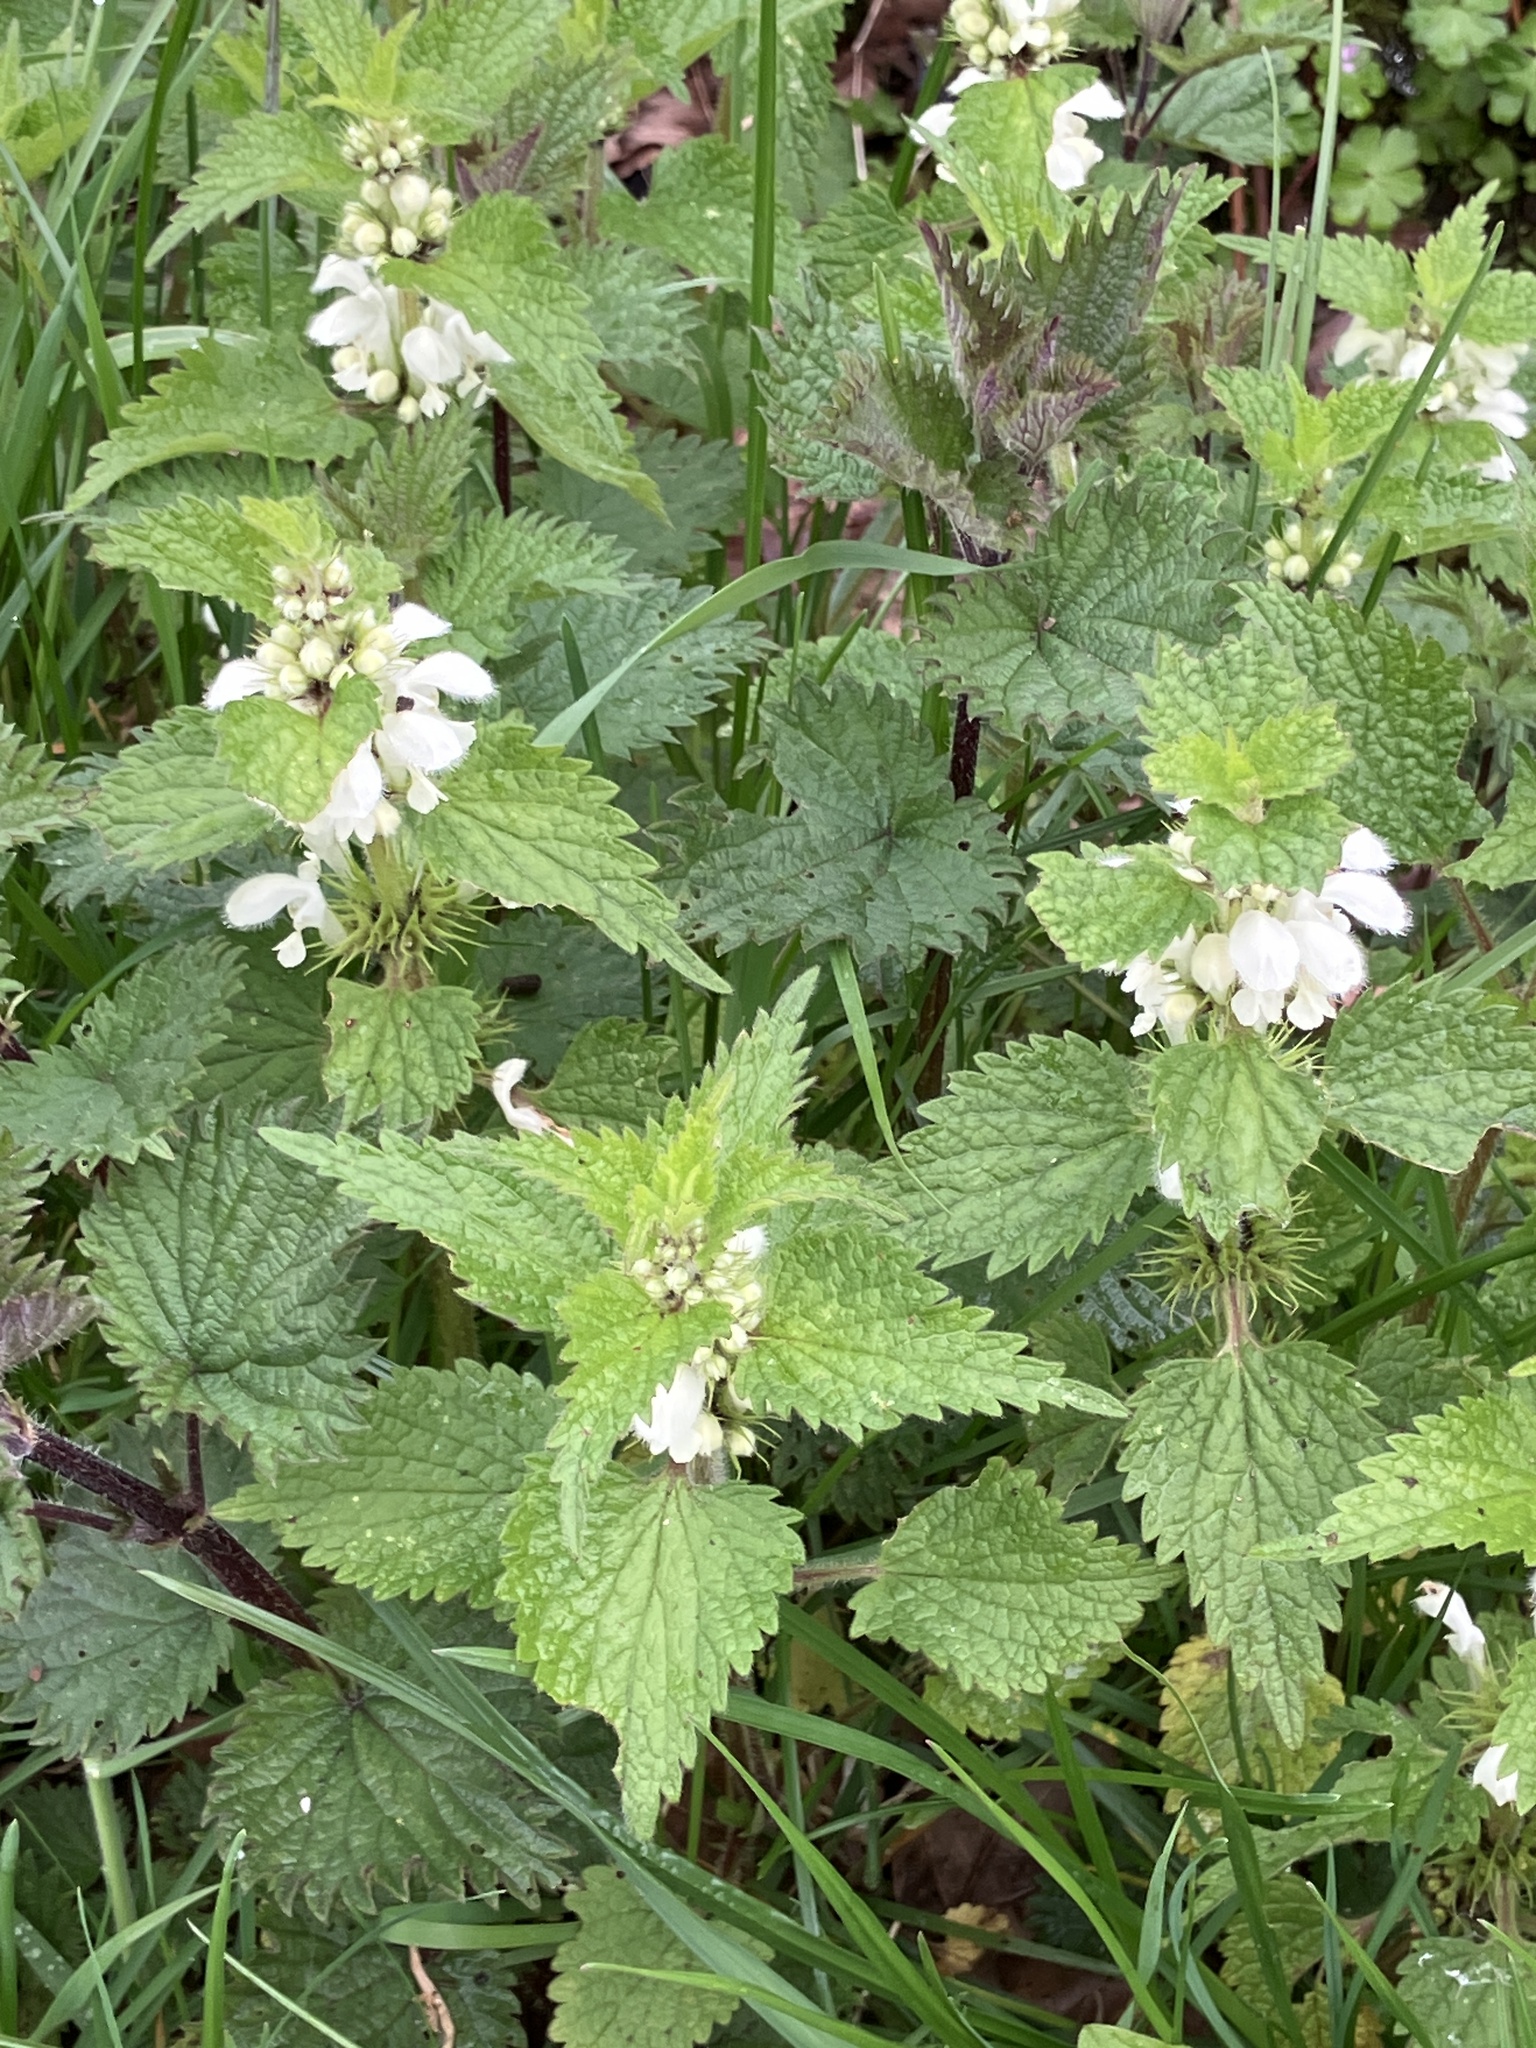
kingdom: Plantae
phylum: Tracheophyta
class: Magnoliopsida
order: Lamiales
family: Lamiaceae
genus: Lamium
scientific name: Lamium album
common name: White dead-nettle
